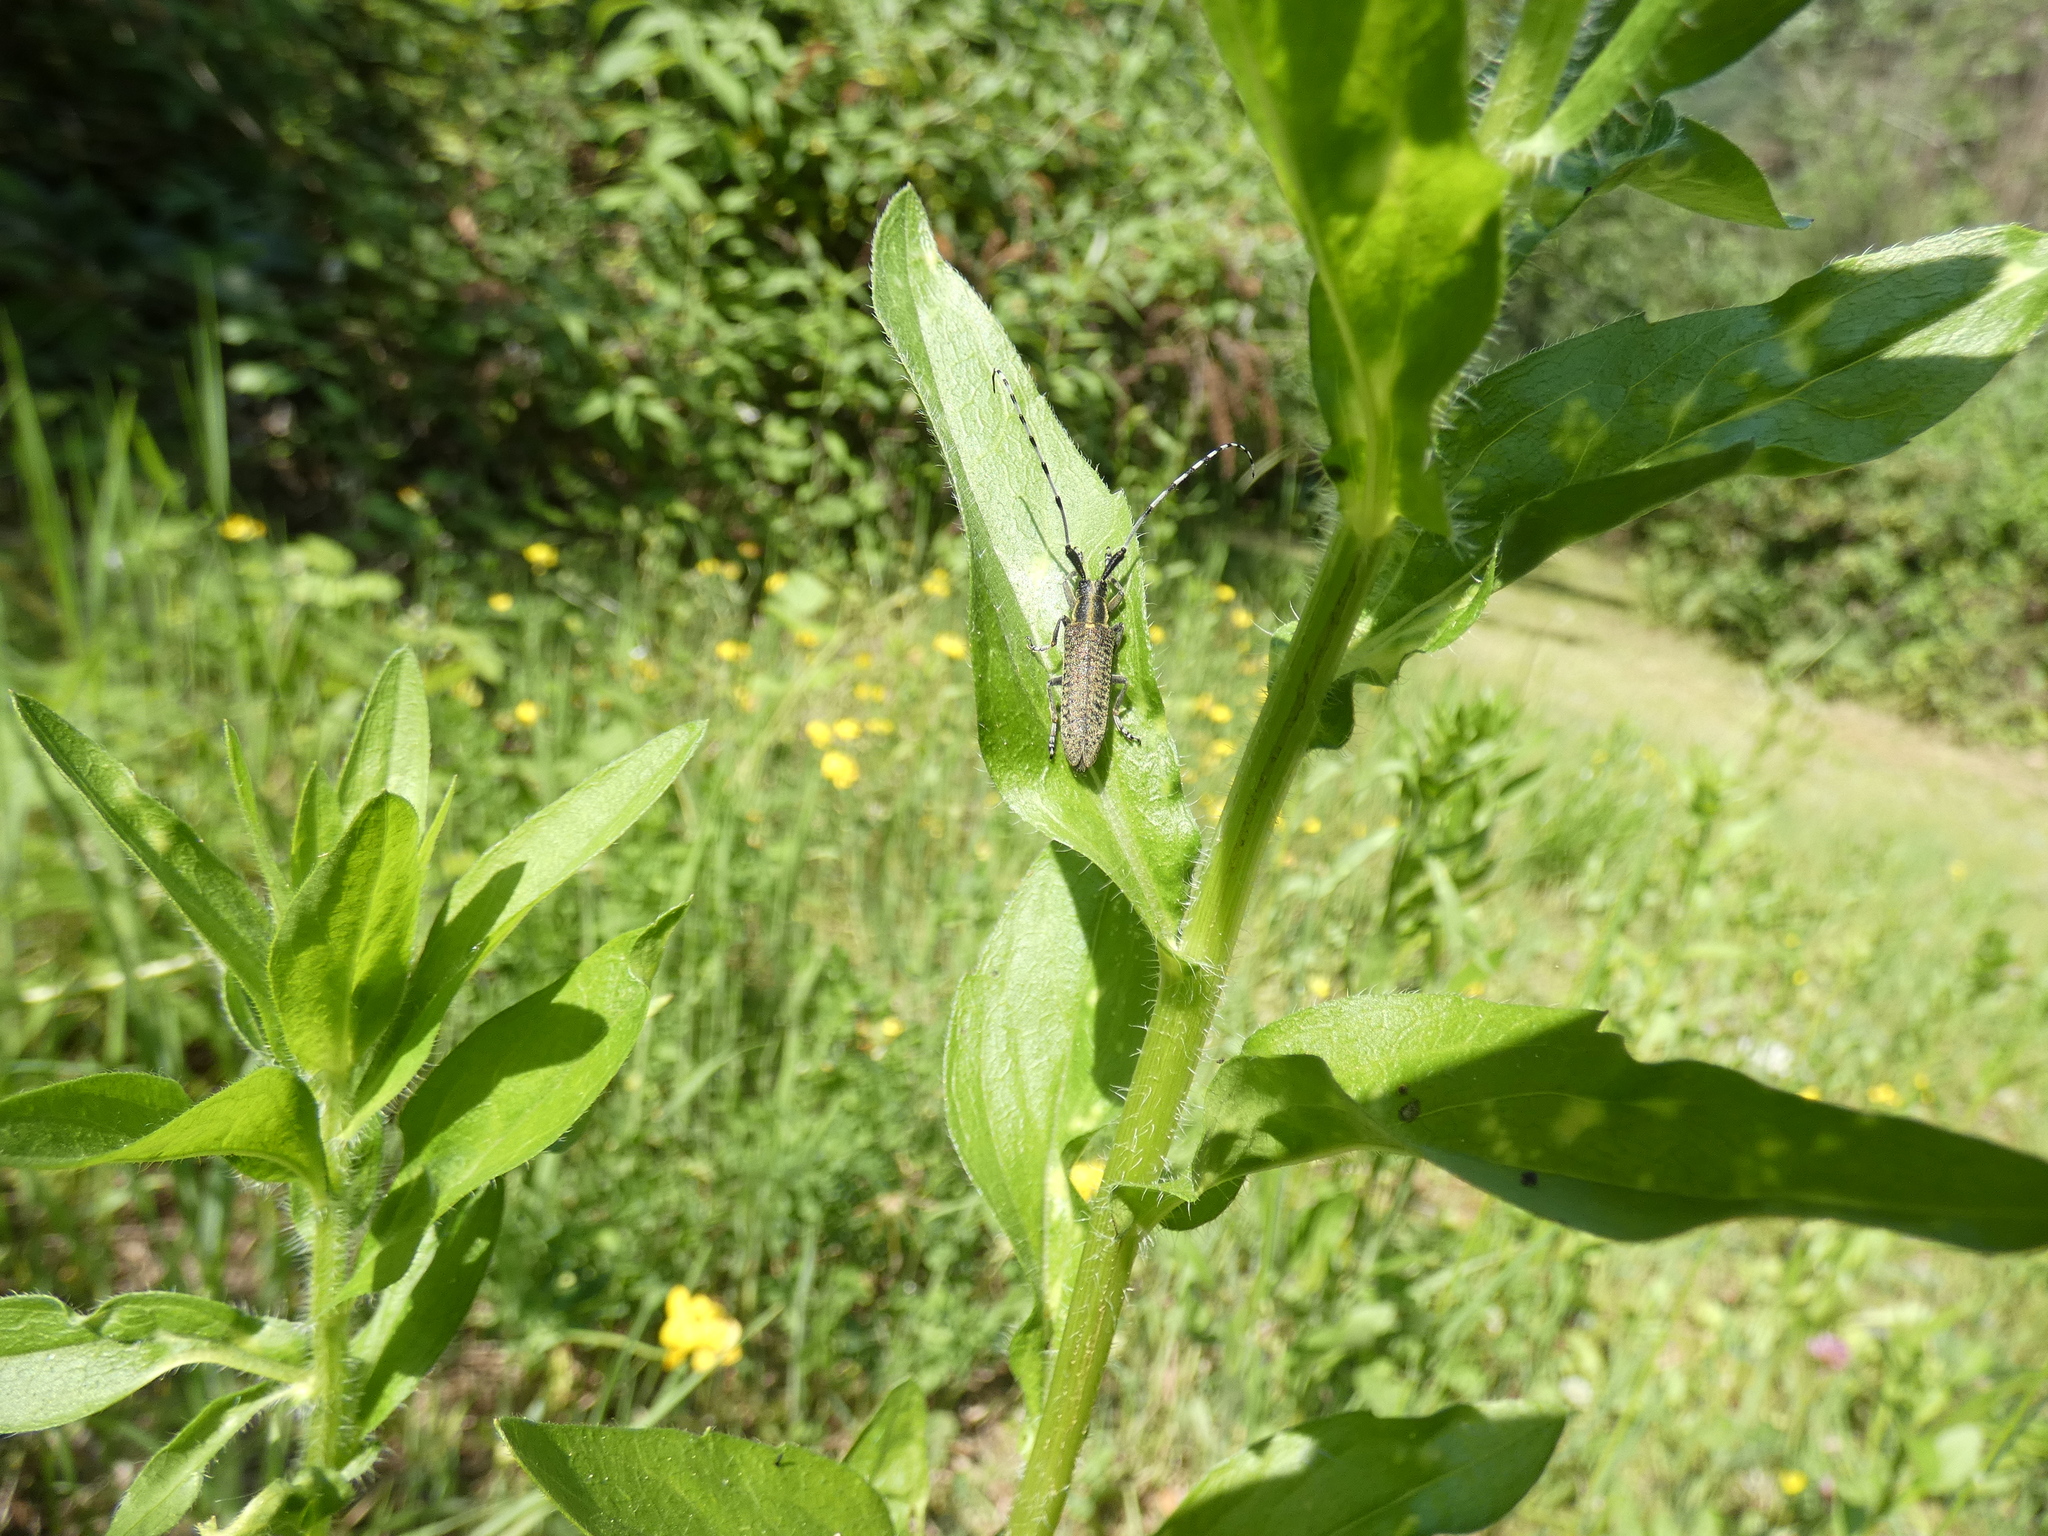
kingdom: Animalia
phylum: Arthropoda
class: Insecta
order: Coleoptera
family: Cerambycidae
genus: Agapanthia
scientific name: Agapanthia villosoviridescens
